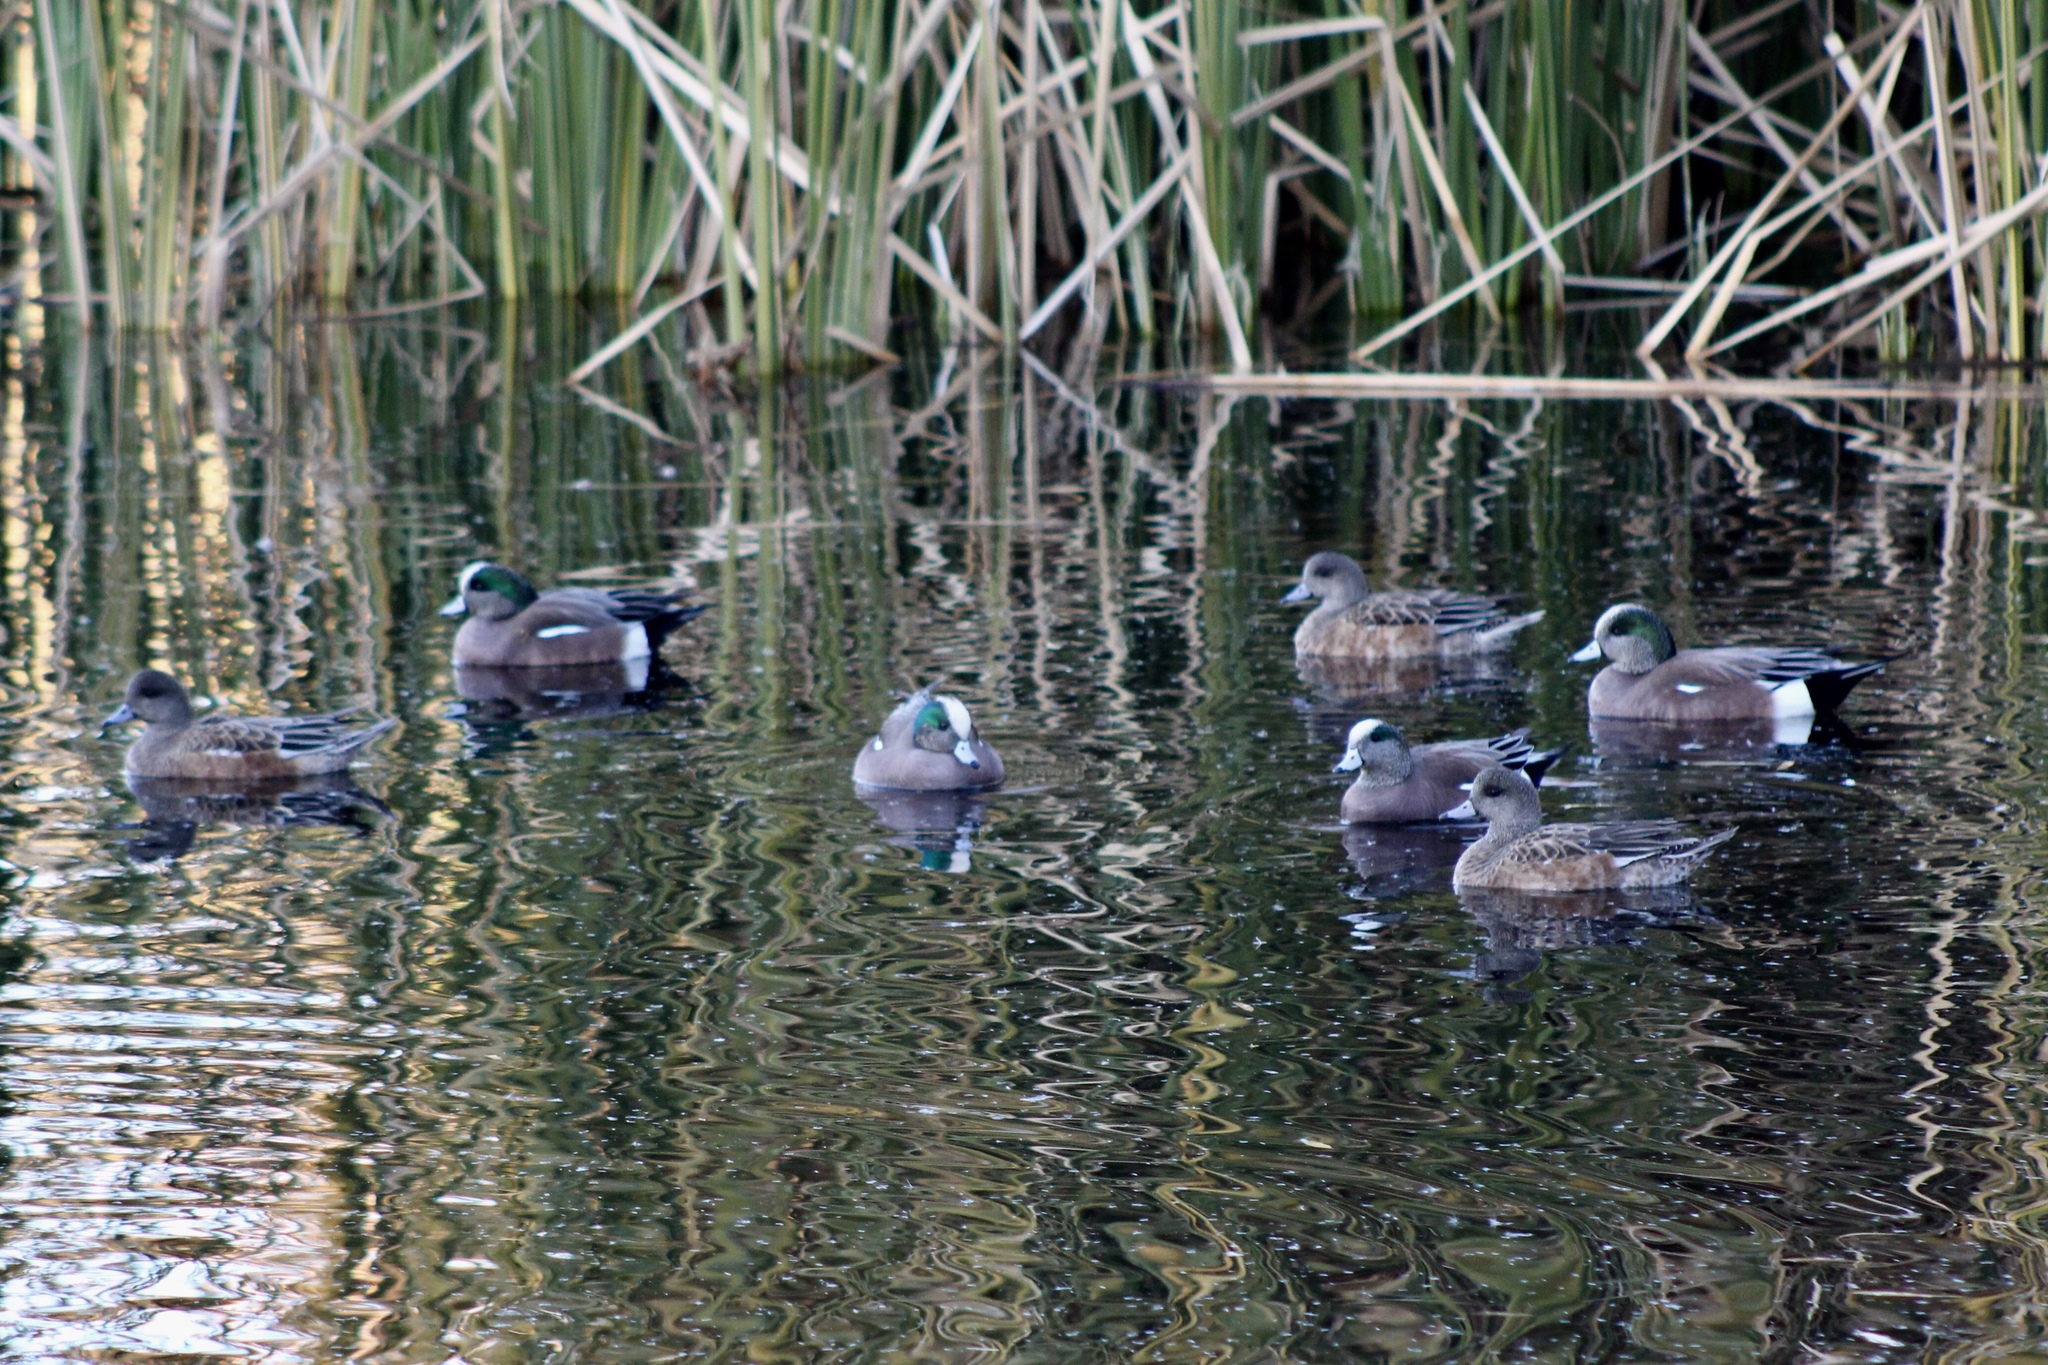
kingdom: Animalia
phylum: Chordata
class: Aves
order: Anseriformes
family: Anatidae
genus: Mareca
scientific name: Mareca americana
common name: American wigeon
